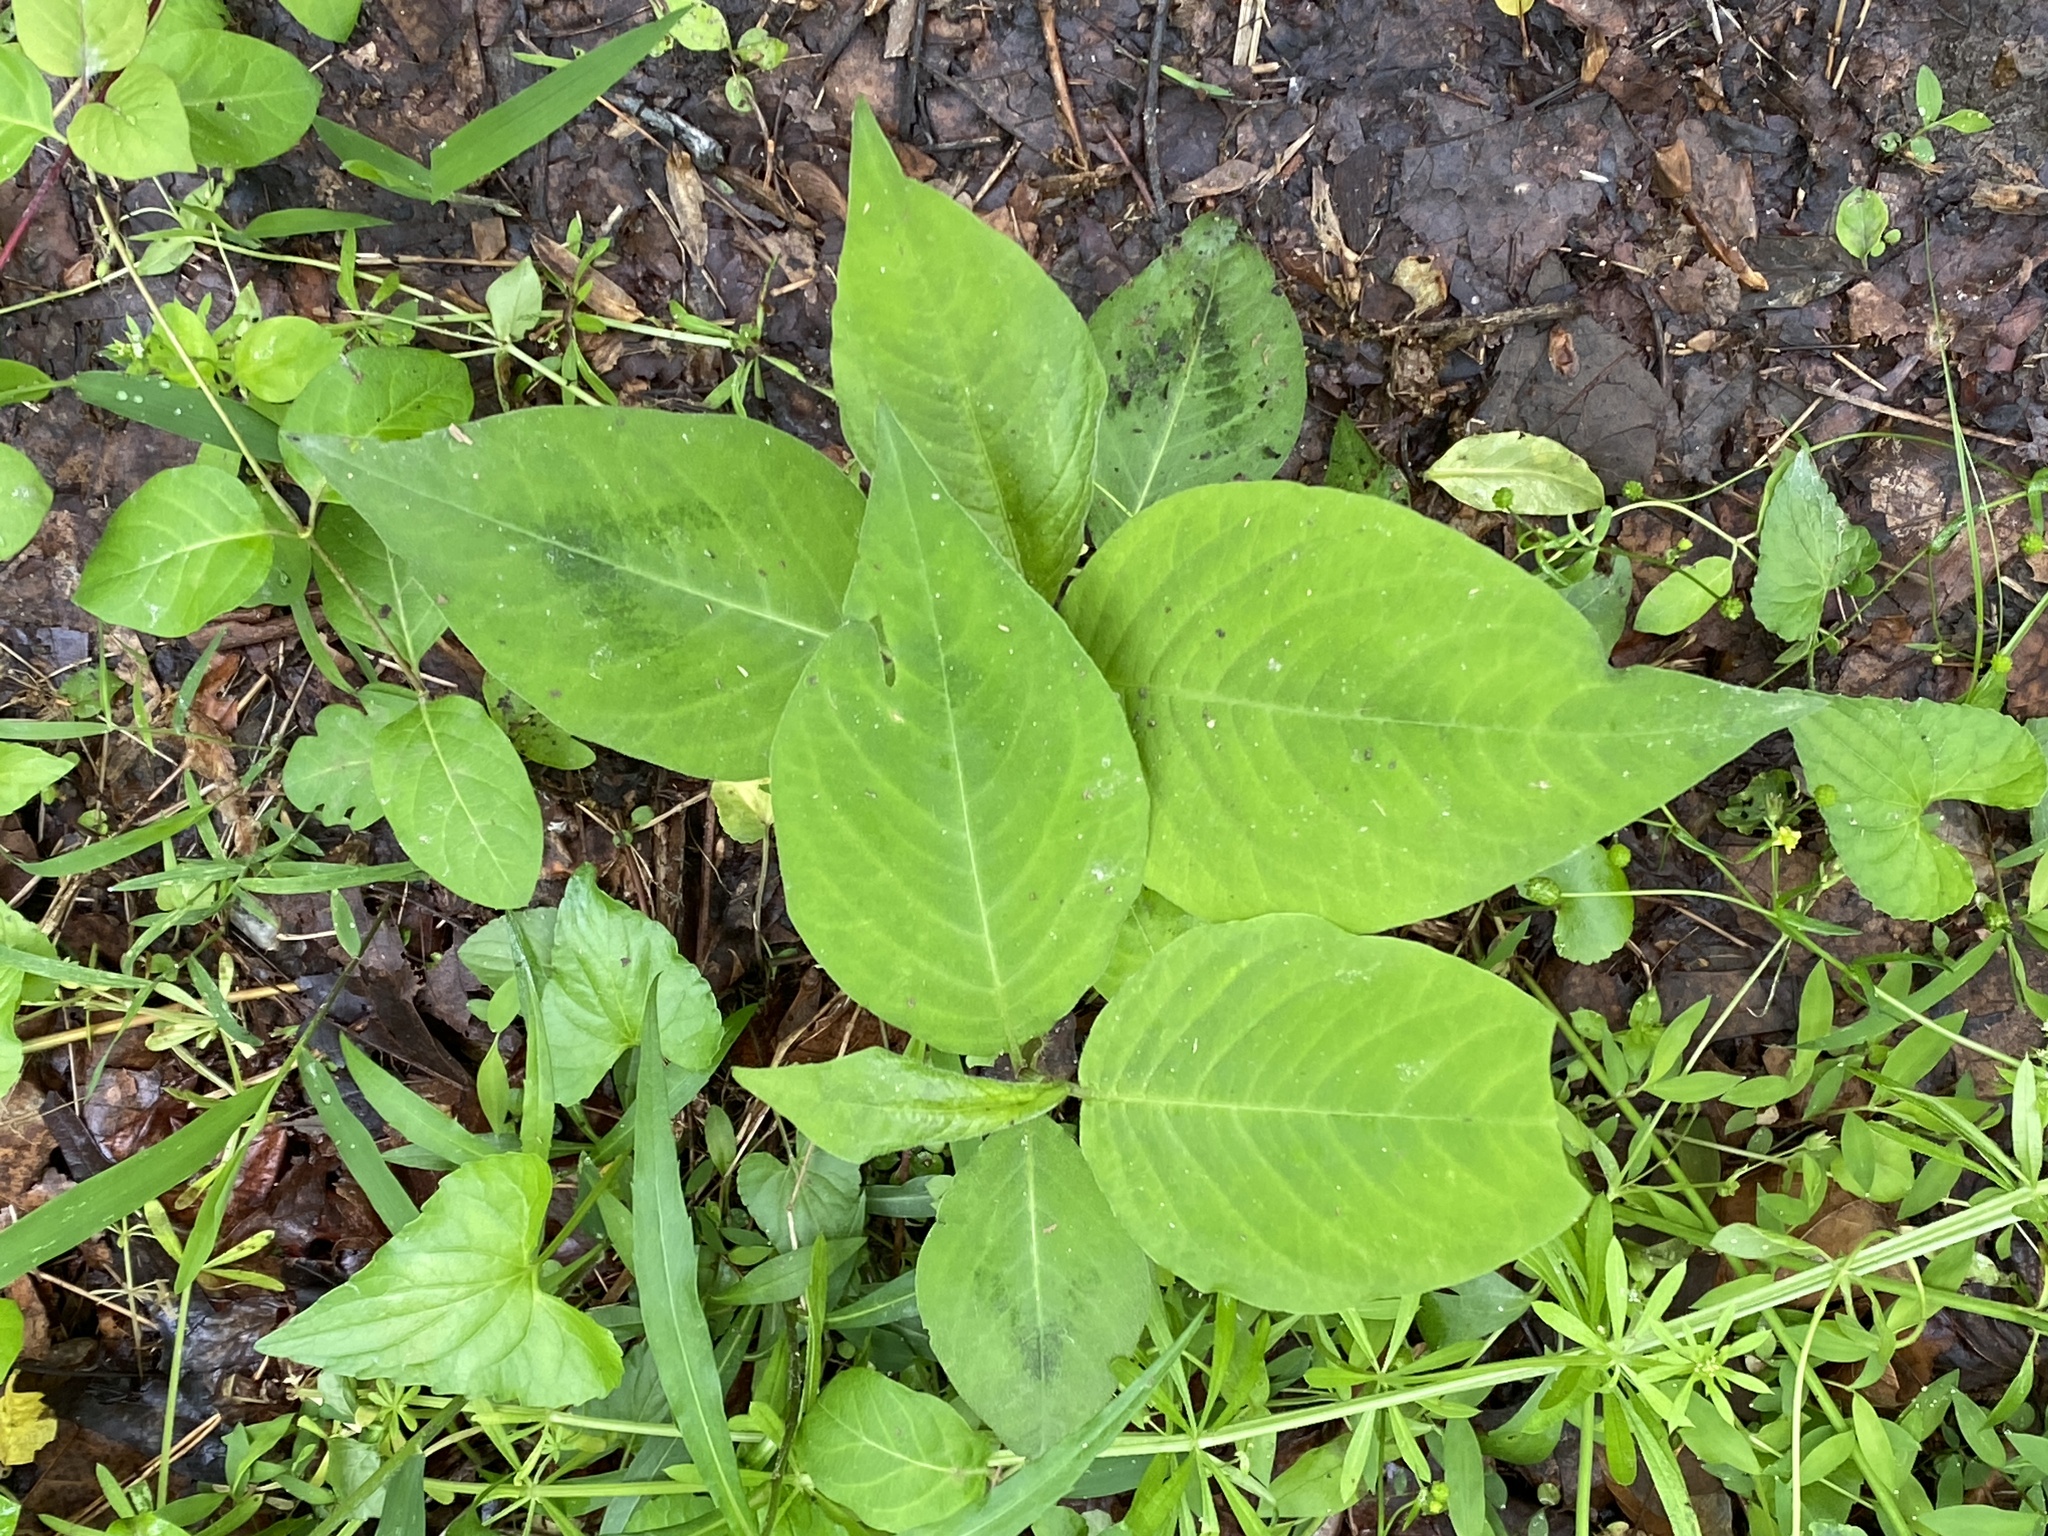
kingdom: Plantae
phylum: Tracheophyta
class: Magnoliopsida
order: Caryophyllales
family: Polygonaceae
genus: Persicaria
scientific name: Persicaria virginiana
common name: Jumpseed
